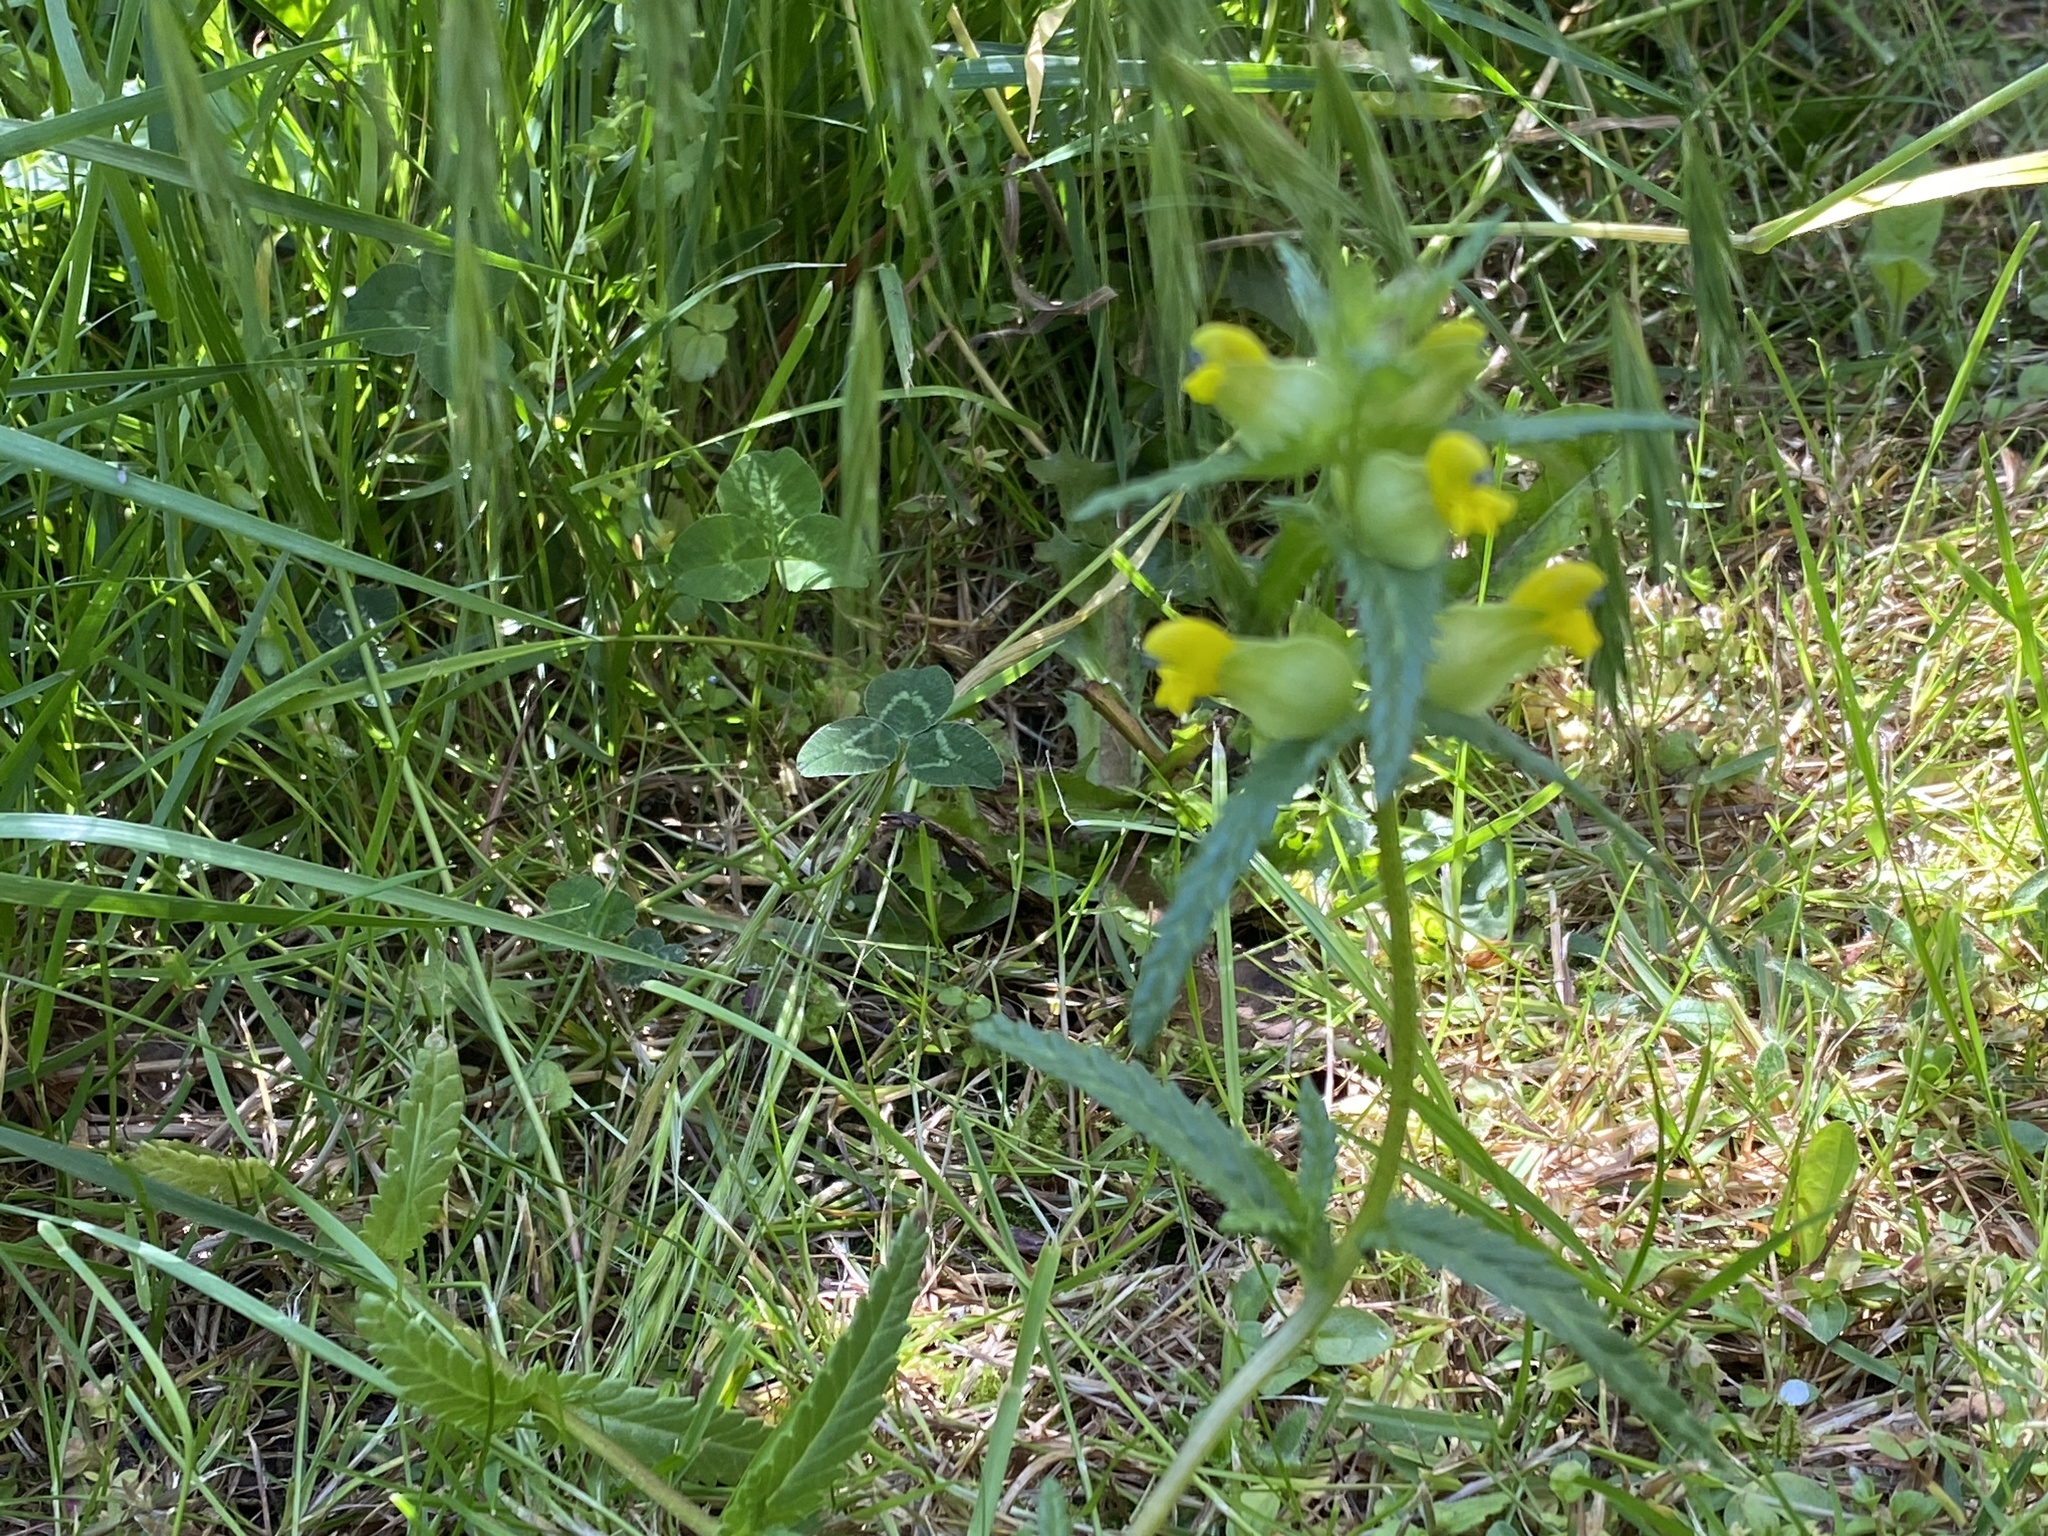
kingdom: Plantae
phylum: Tracheophyta
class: Magnoliopsida
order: Lamiales
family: Orobanchaceae
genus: Rhinanthus
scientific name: Rhinanthus minor
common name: Yellow-rattle
